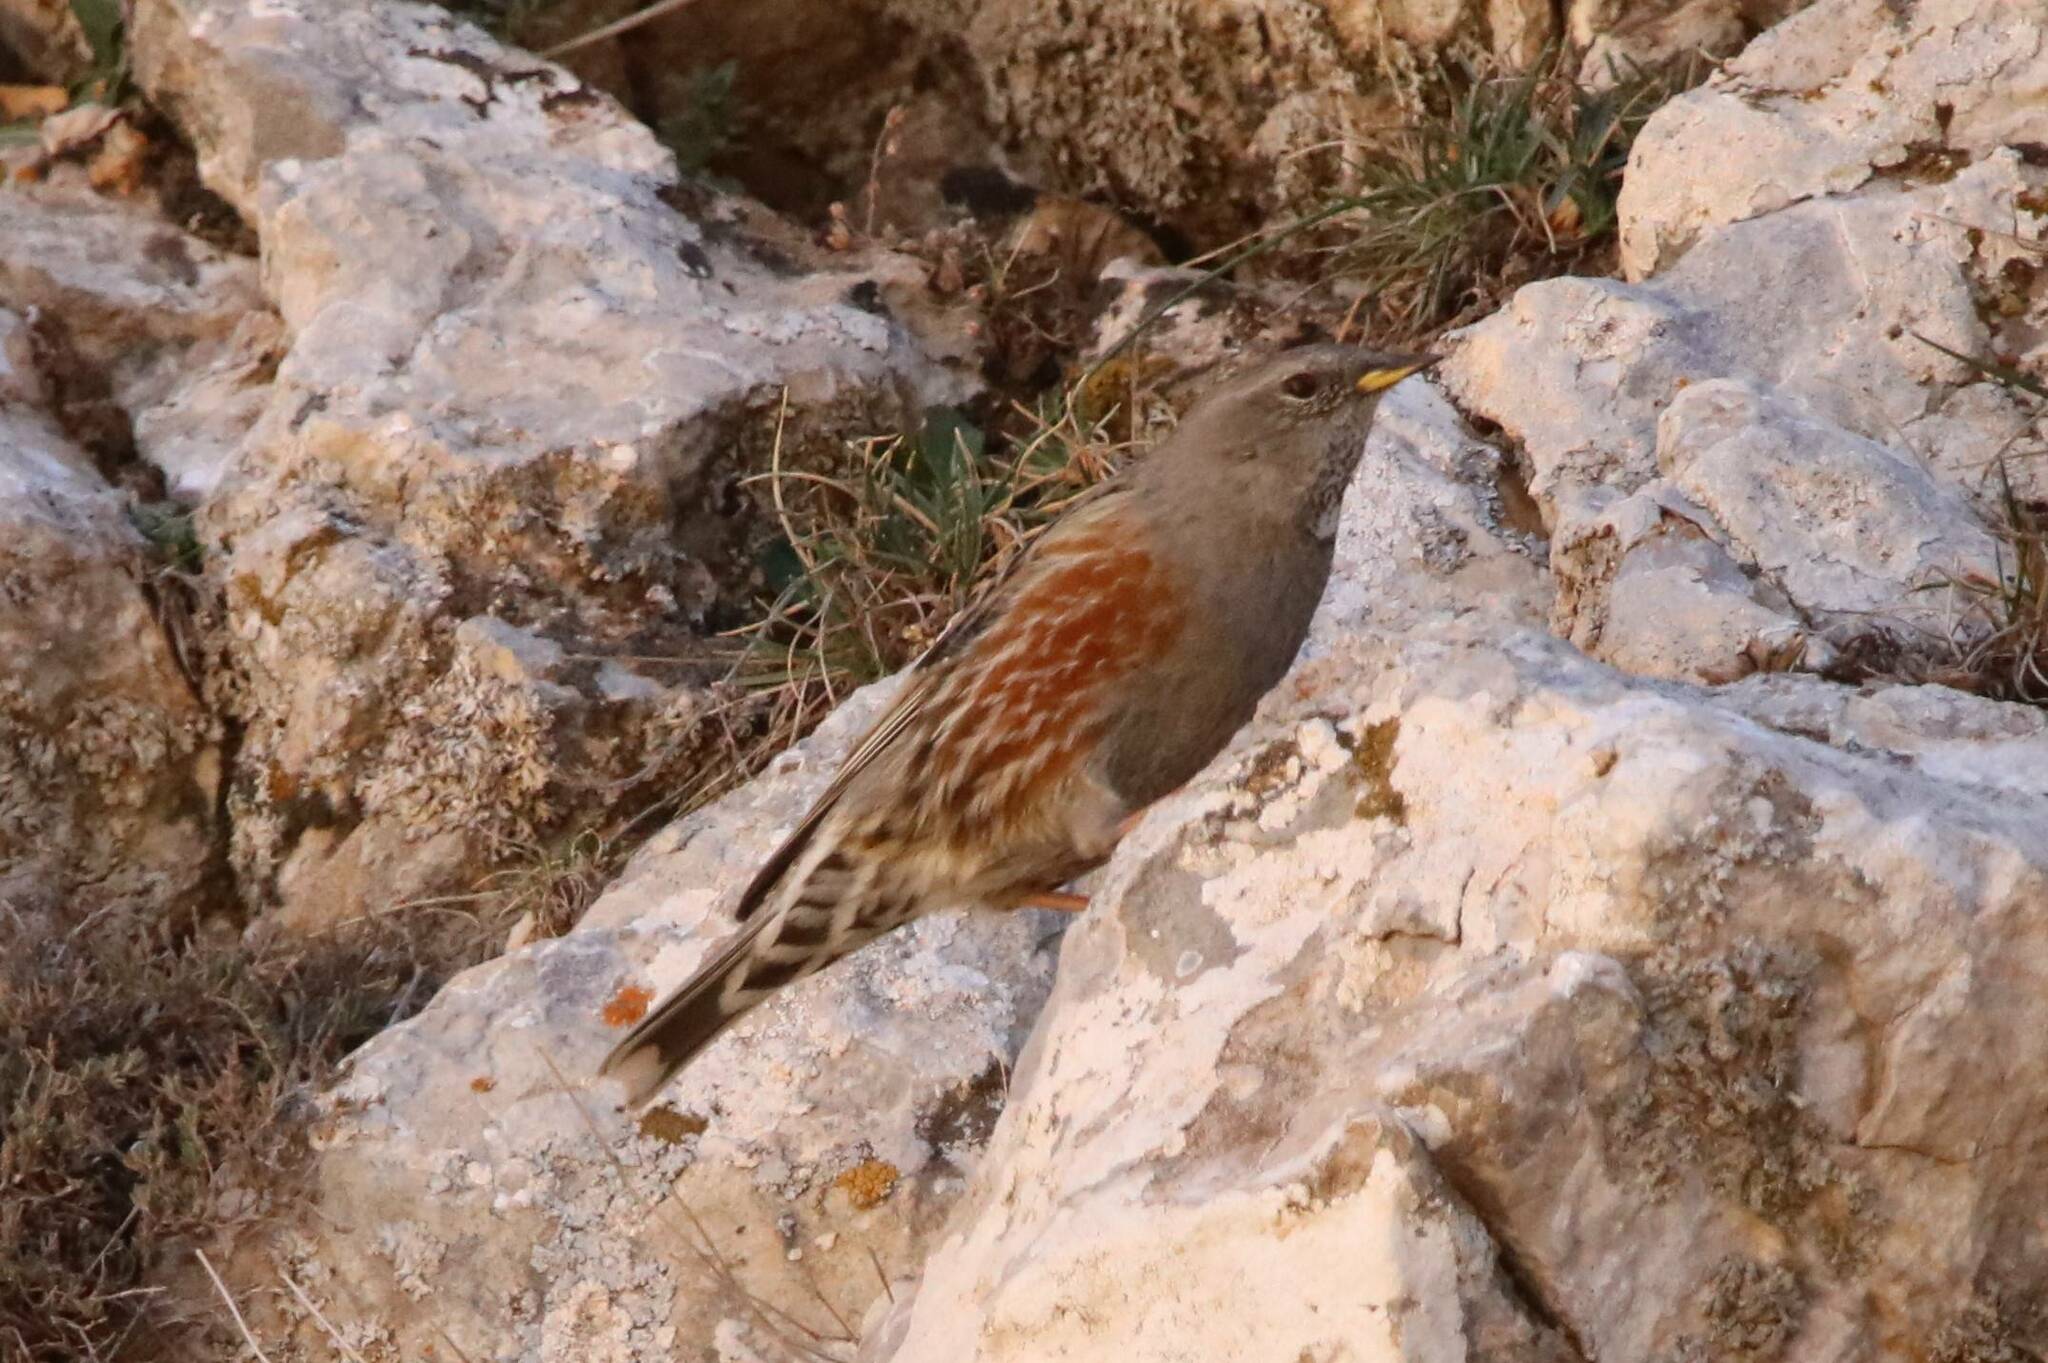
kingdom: Animalia
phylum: Chordata
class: Aves
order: Passeriformes
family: Prunellidae
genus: Prunella
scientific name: Prunella collaris
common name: Alpine accentor
